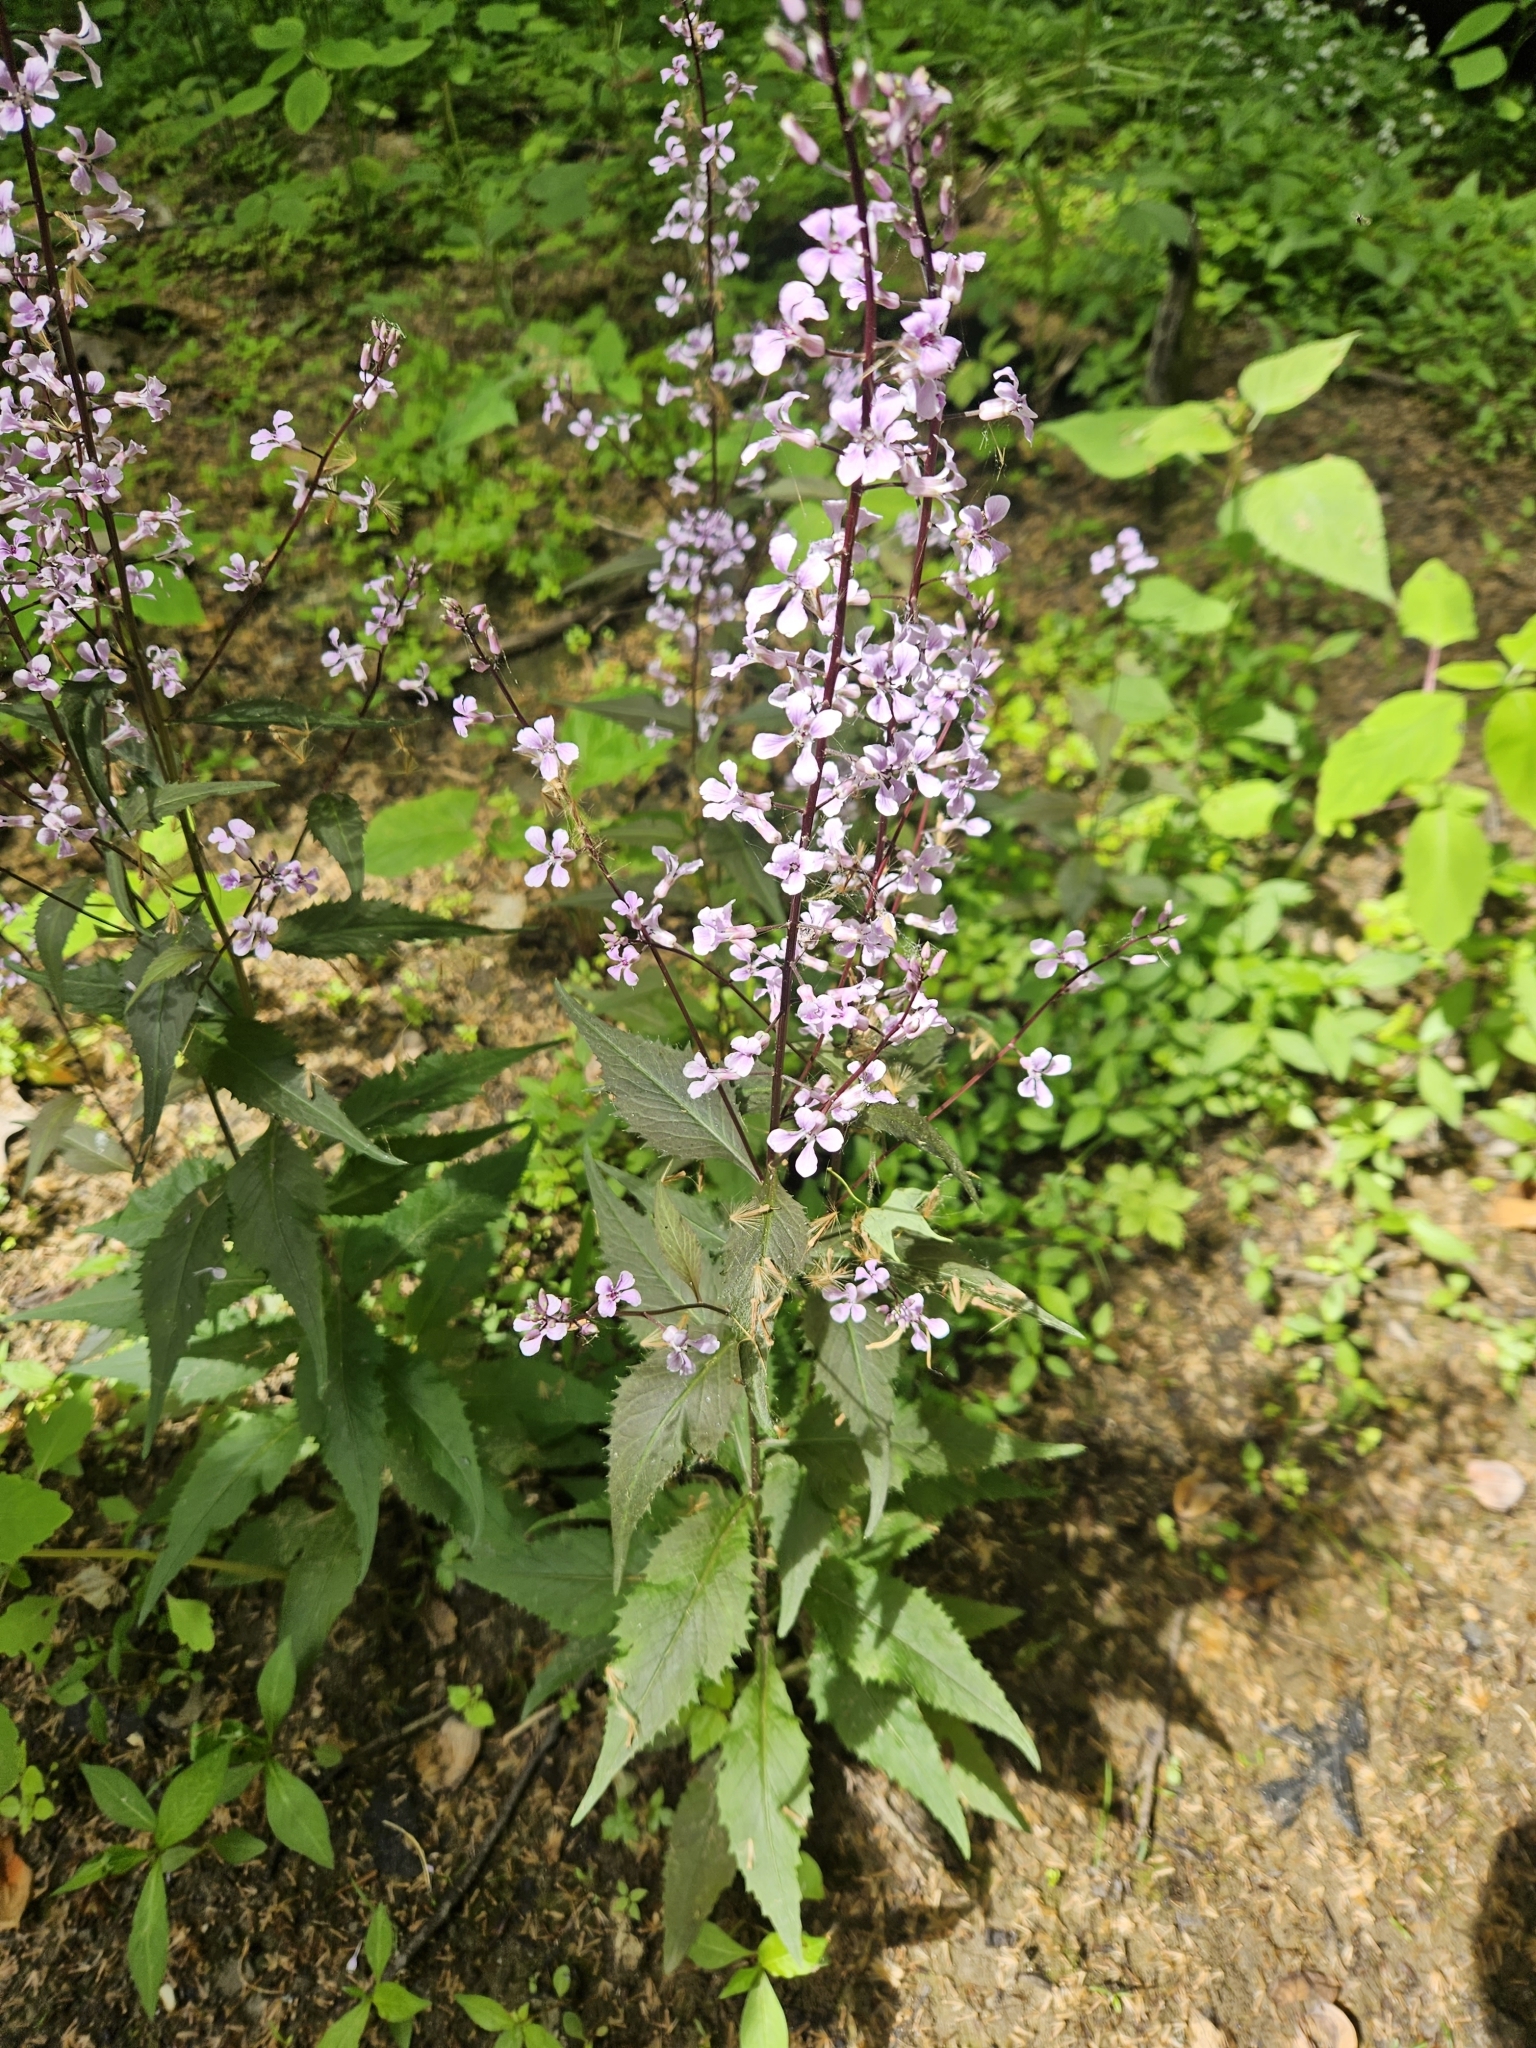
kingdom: Plantae
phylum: Tracheophyta
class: Magnoliopsida
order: Brassicales
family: Brassicaceae
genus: Iodanthus
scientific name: Iodanthus pinnatifidus
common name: Violet rocket
